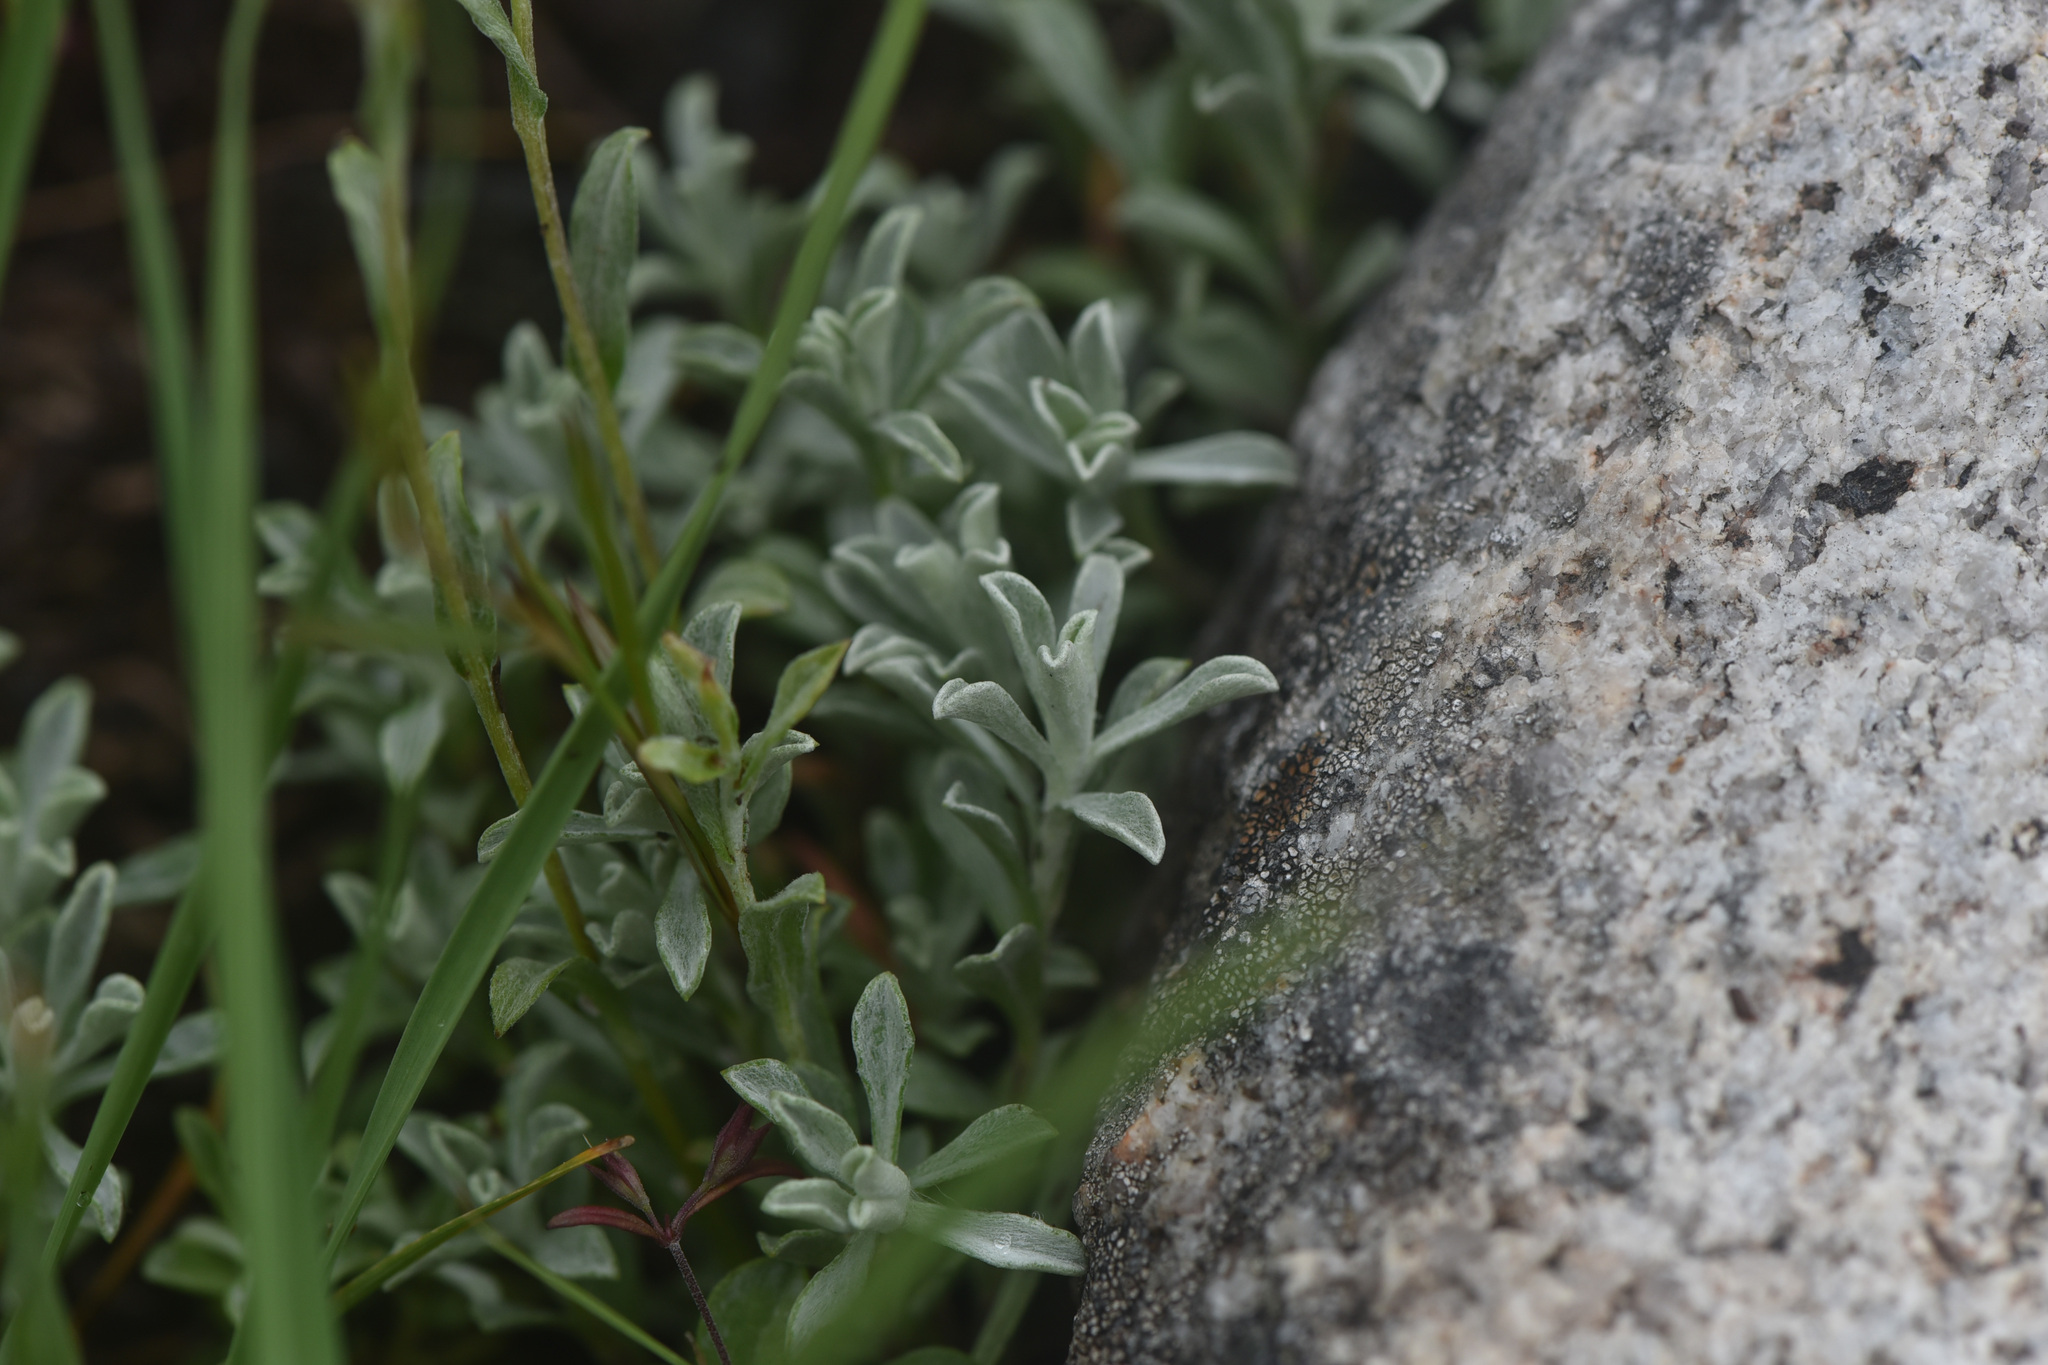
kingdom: Plantae
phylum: Tracheophyta
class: Magnoliopsida
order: Asterales
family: Asteraceae
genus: Antennaria
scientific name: Antennaria umbrinella
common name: Brown pussytoes
